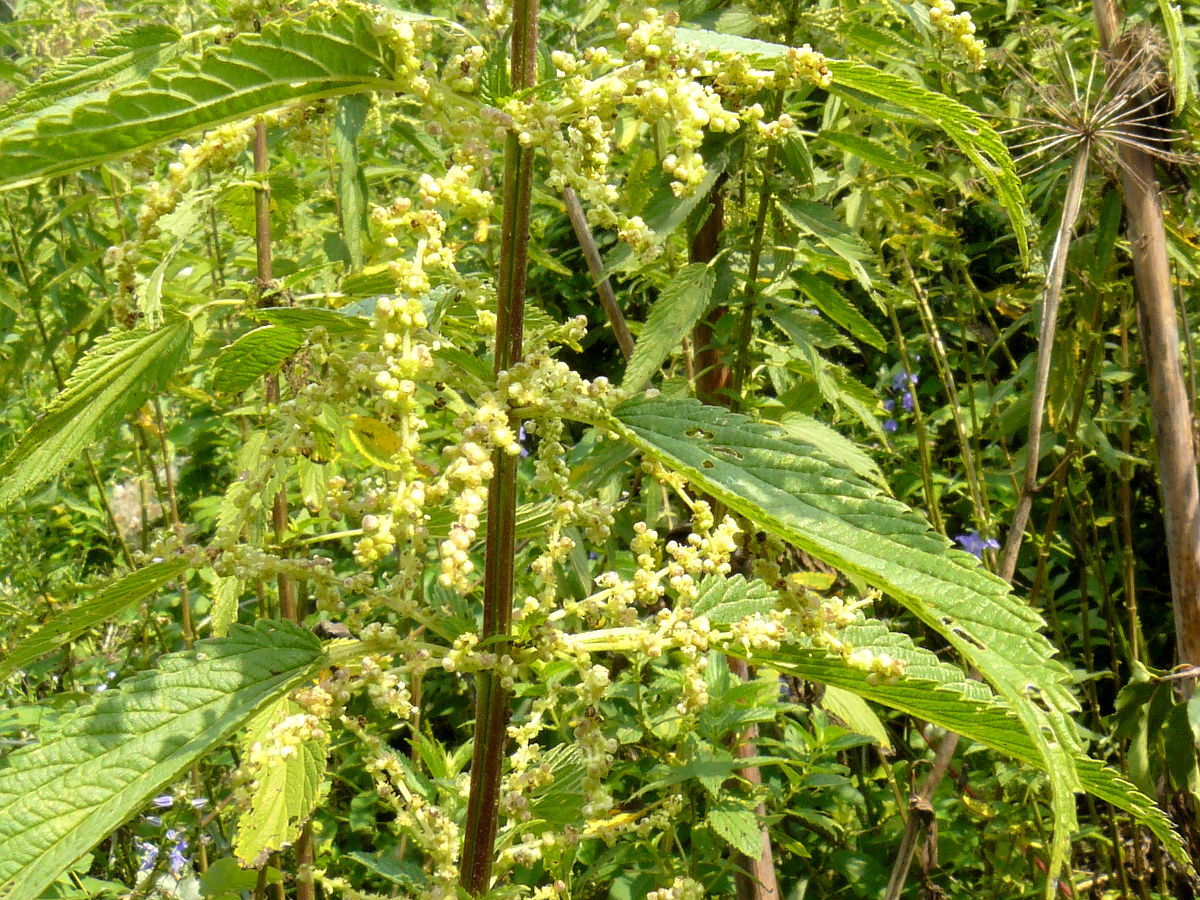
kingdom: Plantae
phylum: Tracheophyta
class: Magnoliopsida
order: Rosales
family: Urticaceae
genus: Urtica
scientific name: Urtica dioica
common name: Common nettle
